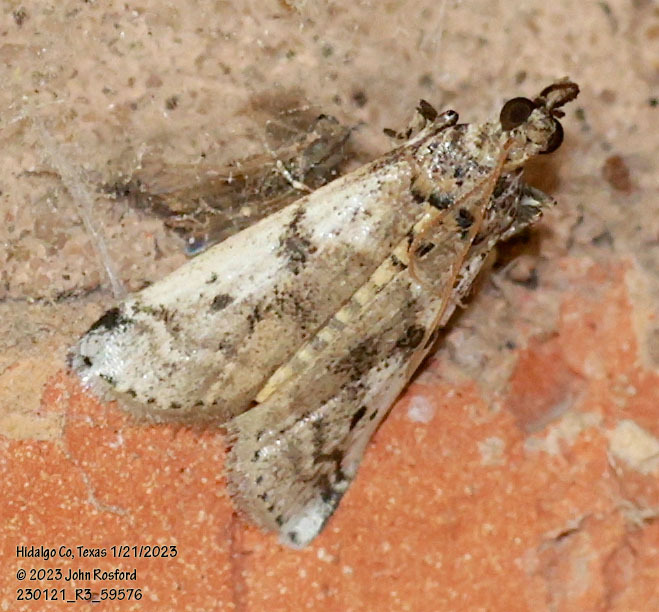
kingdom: Animalia
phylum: Arthropoda
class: Insecta
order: Lepidoptera
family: Pyralidae
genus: Laetilia
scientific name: Laetilia coccidivora
